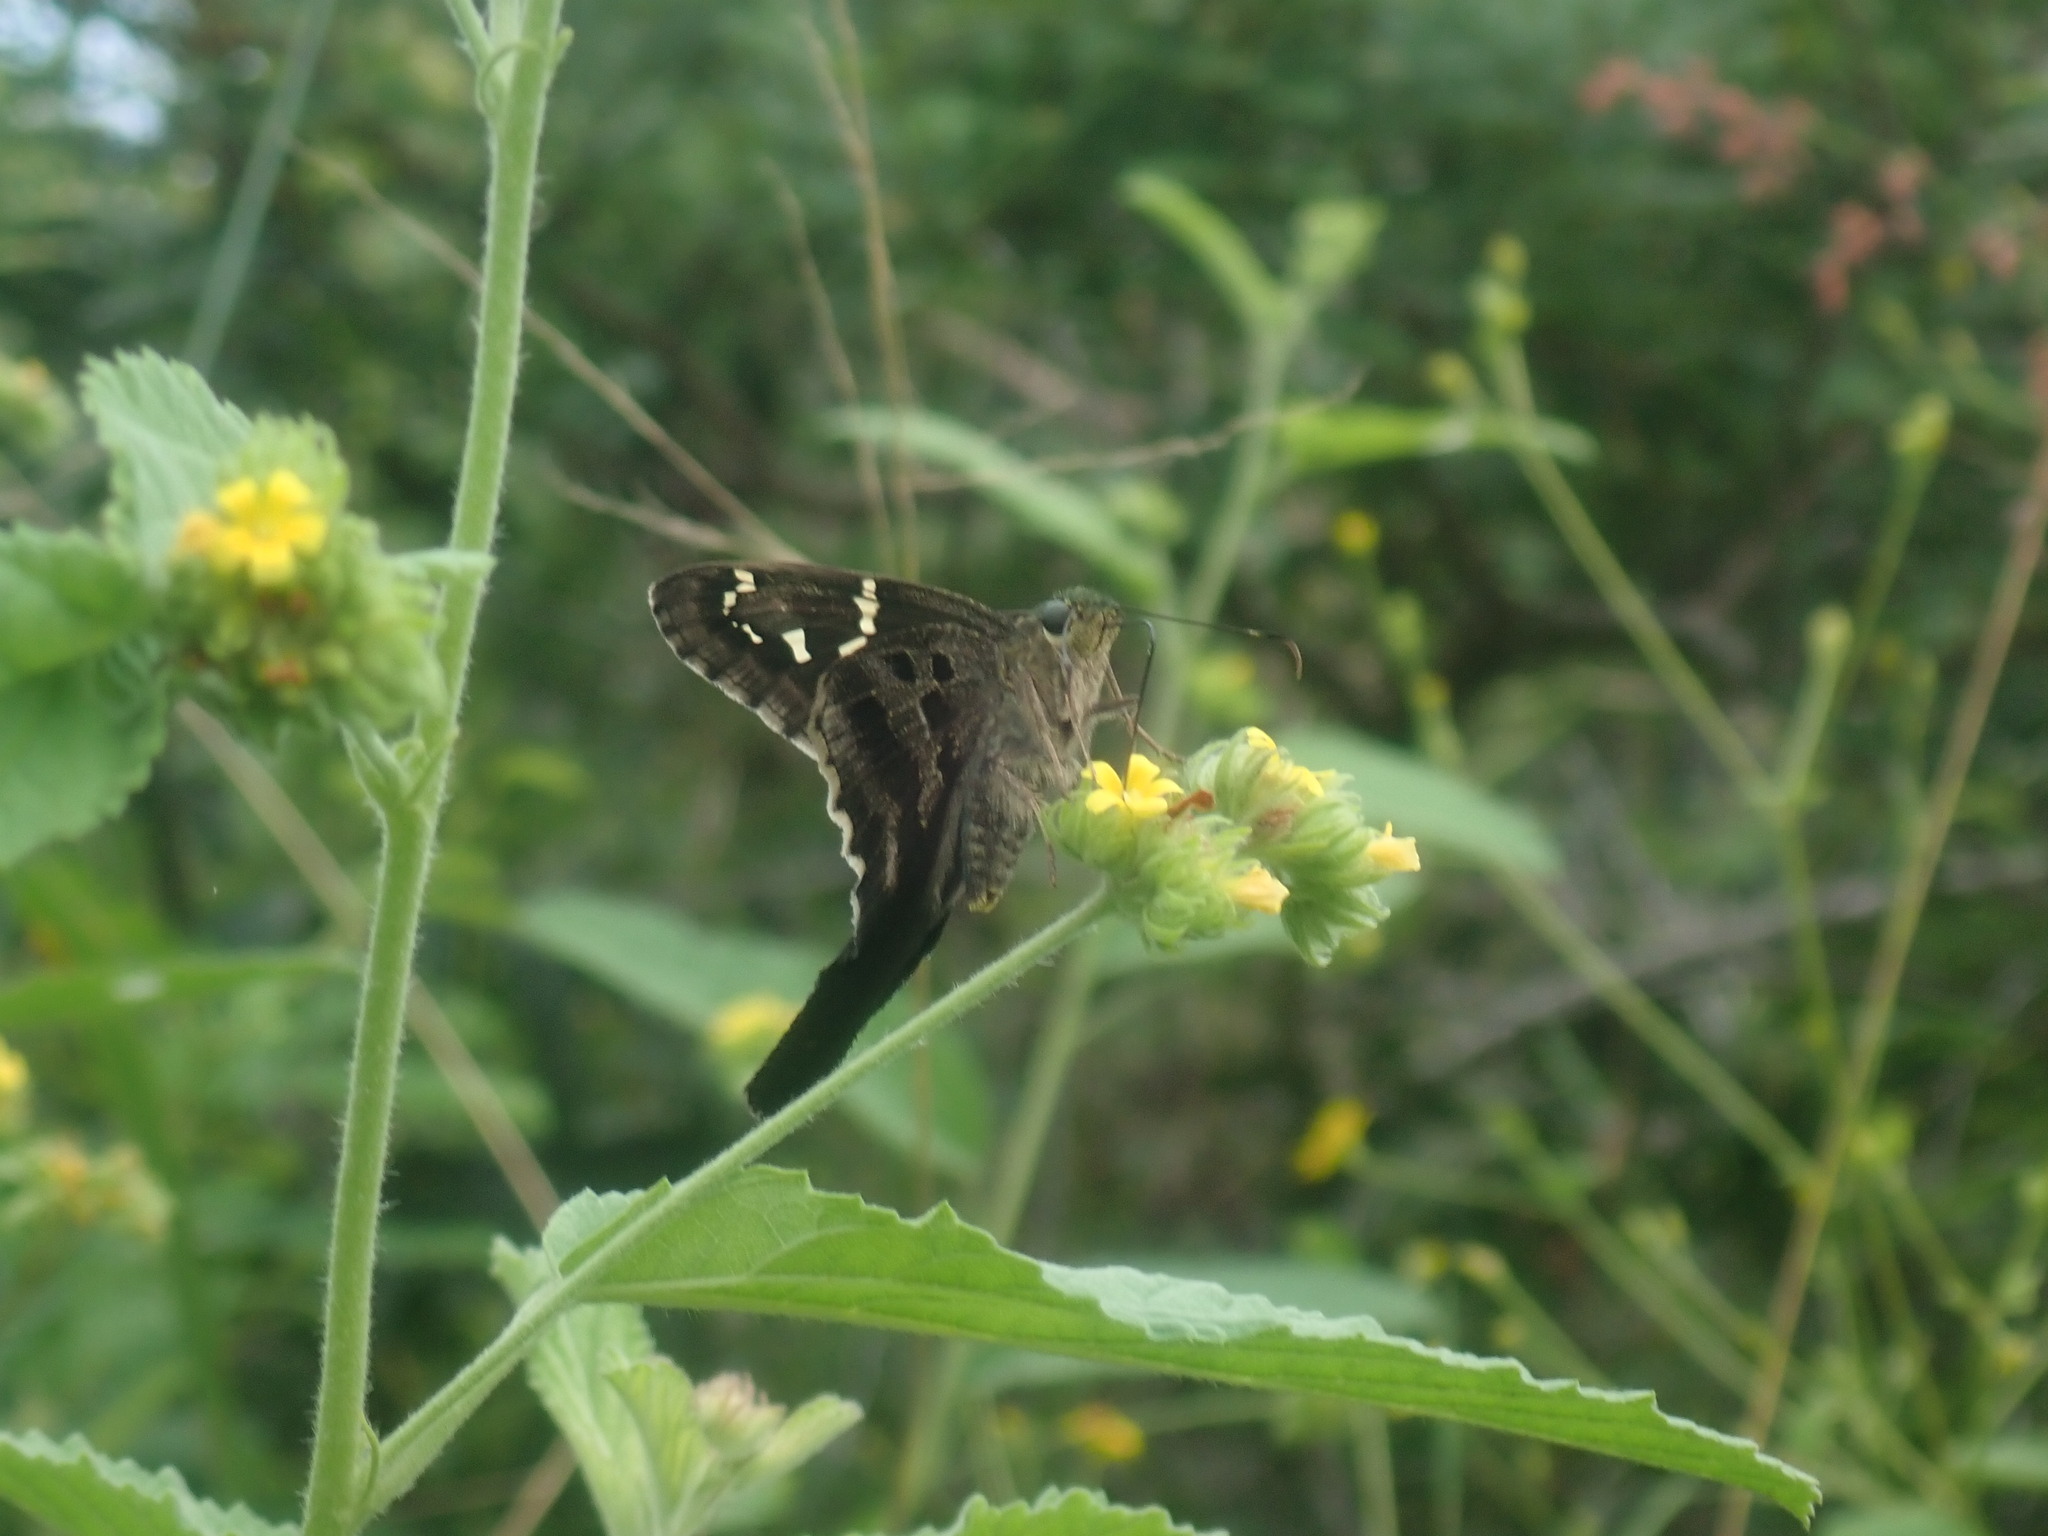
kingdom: Animalia
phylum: Arthropoda
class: Insecta
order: Lepidoptera
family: Hesperiidae
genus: Urbanus
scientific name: Urbanus proteus
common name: Long-tailed skipper
